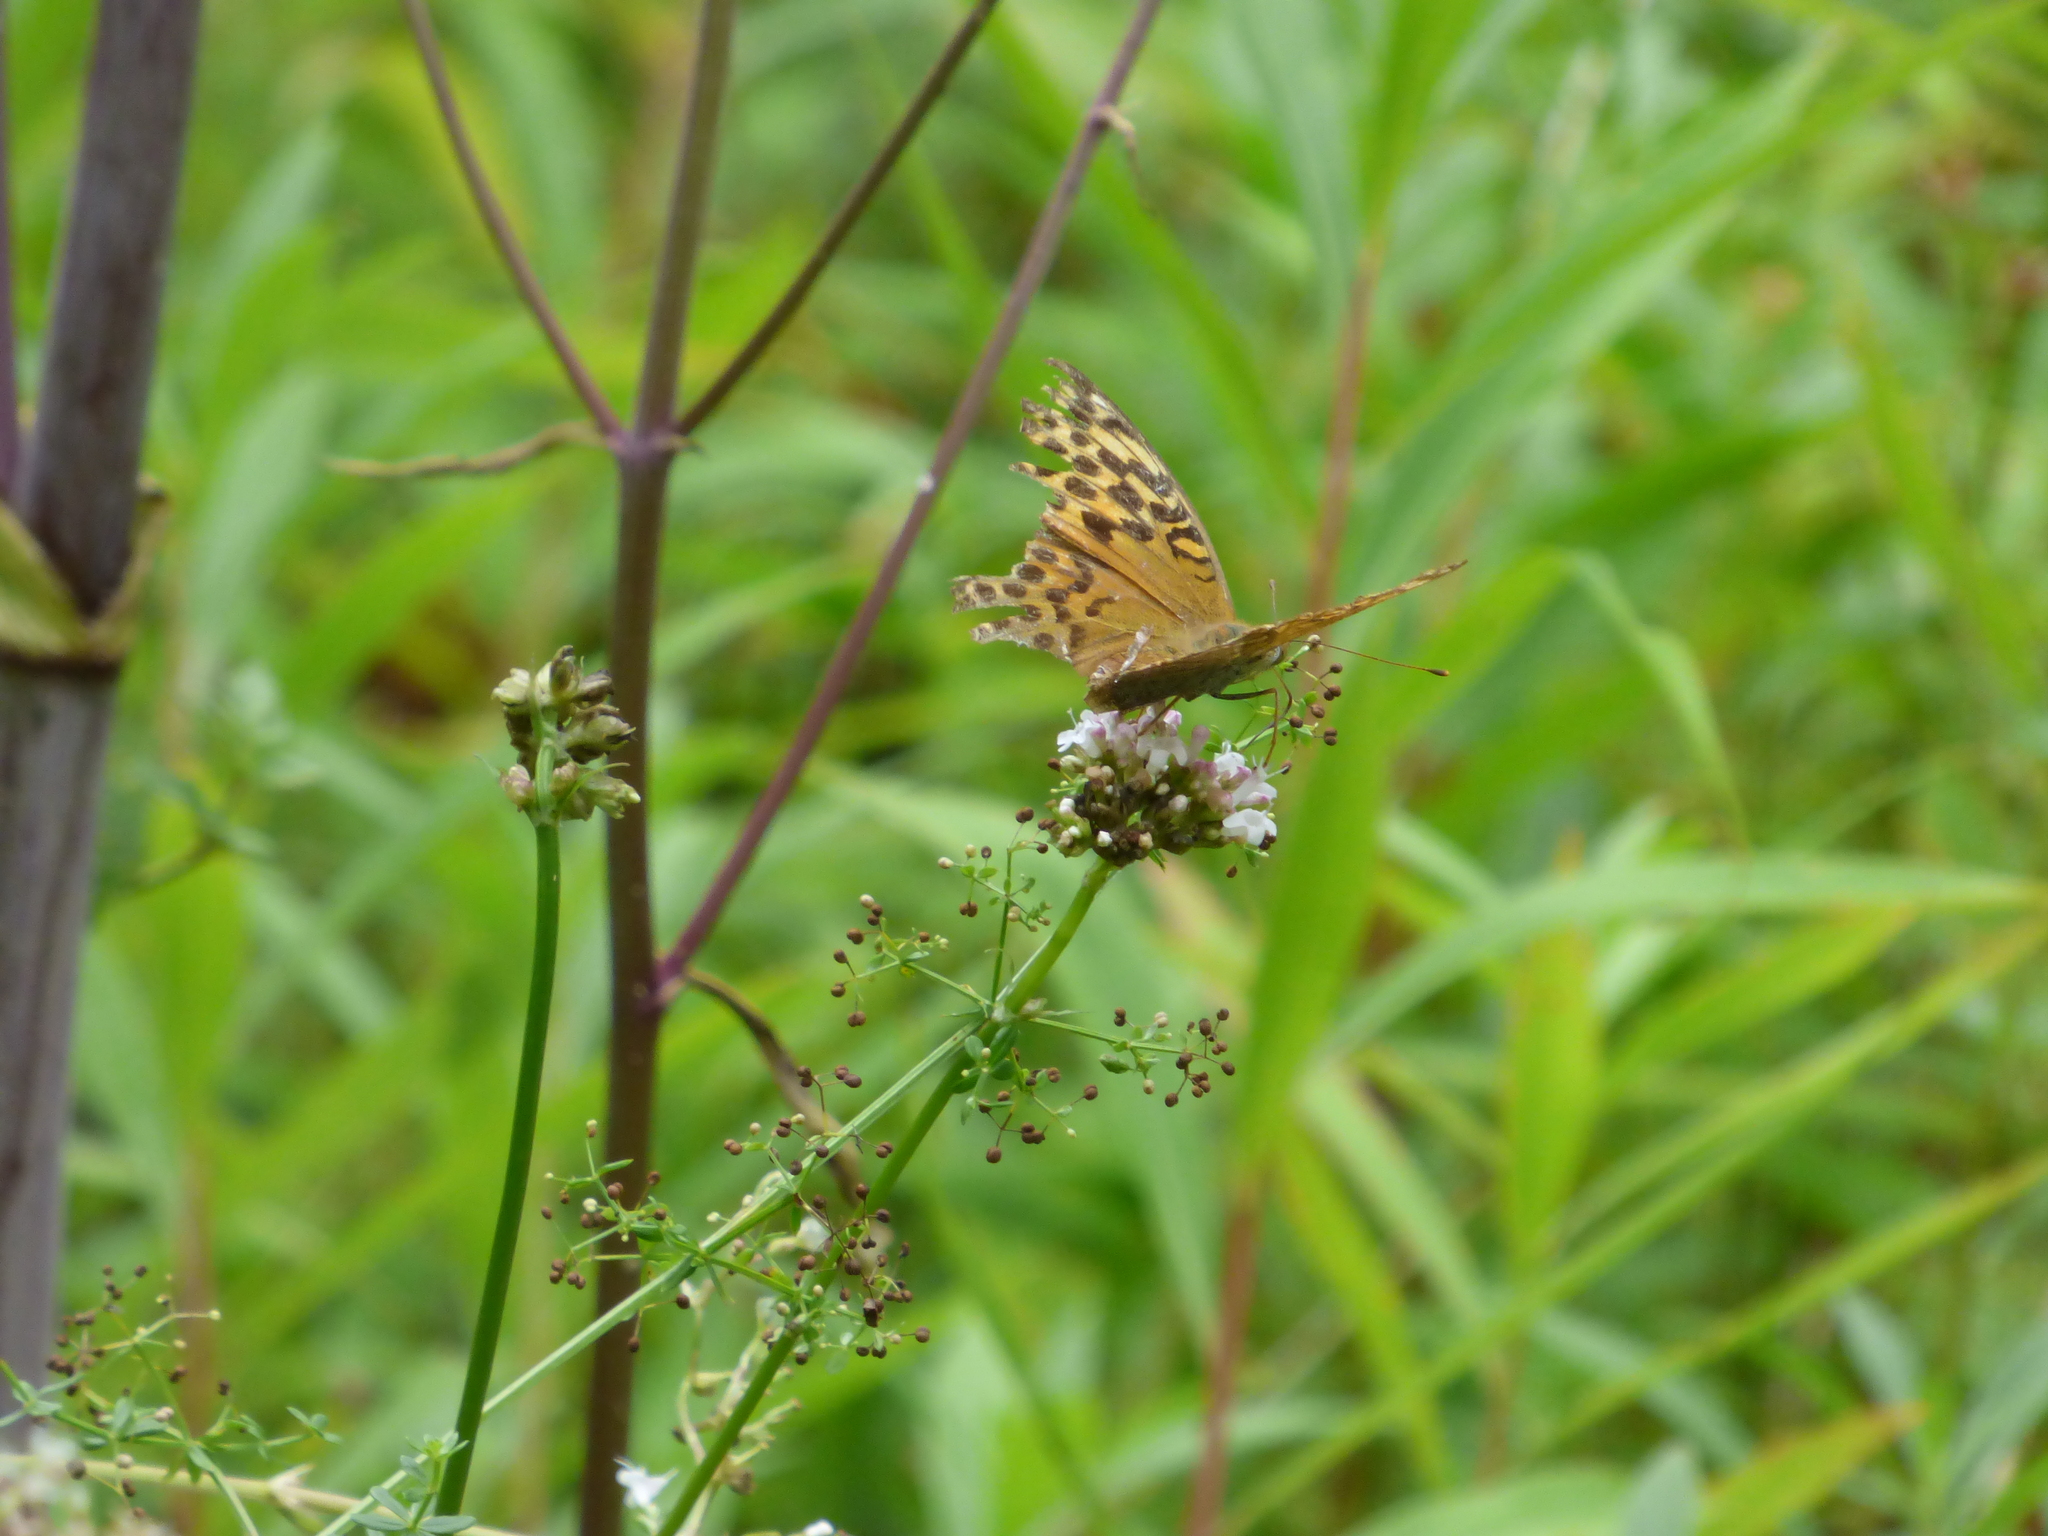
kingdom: Animalia
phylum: Arthropoda
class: Insecta
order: Lepidoptera
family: Nymphalidae
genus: Argynnis
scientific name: Argynnis paphia
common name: Silver-washed fritillary
